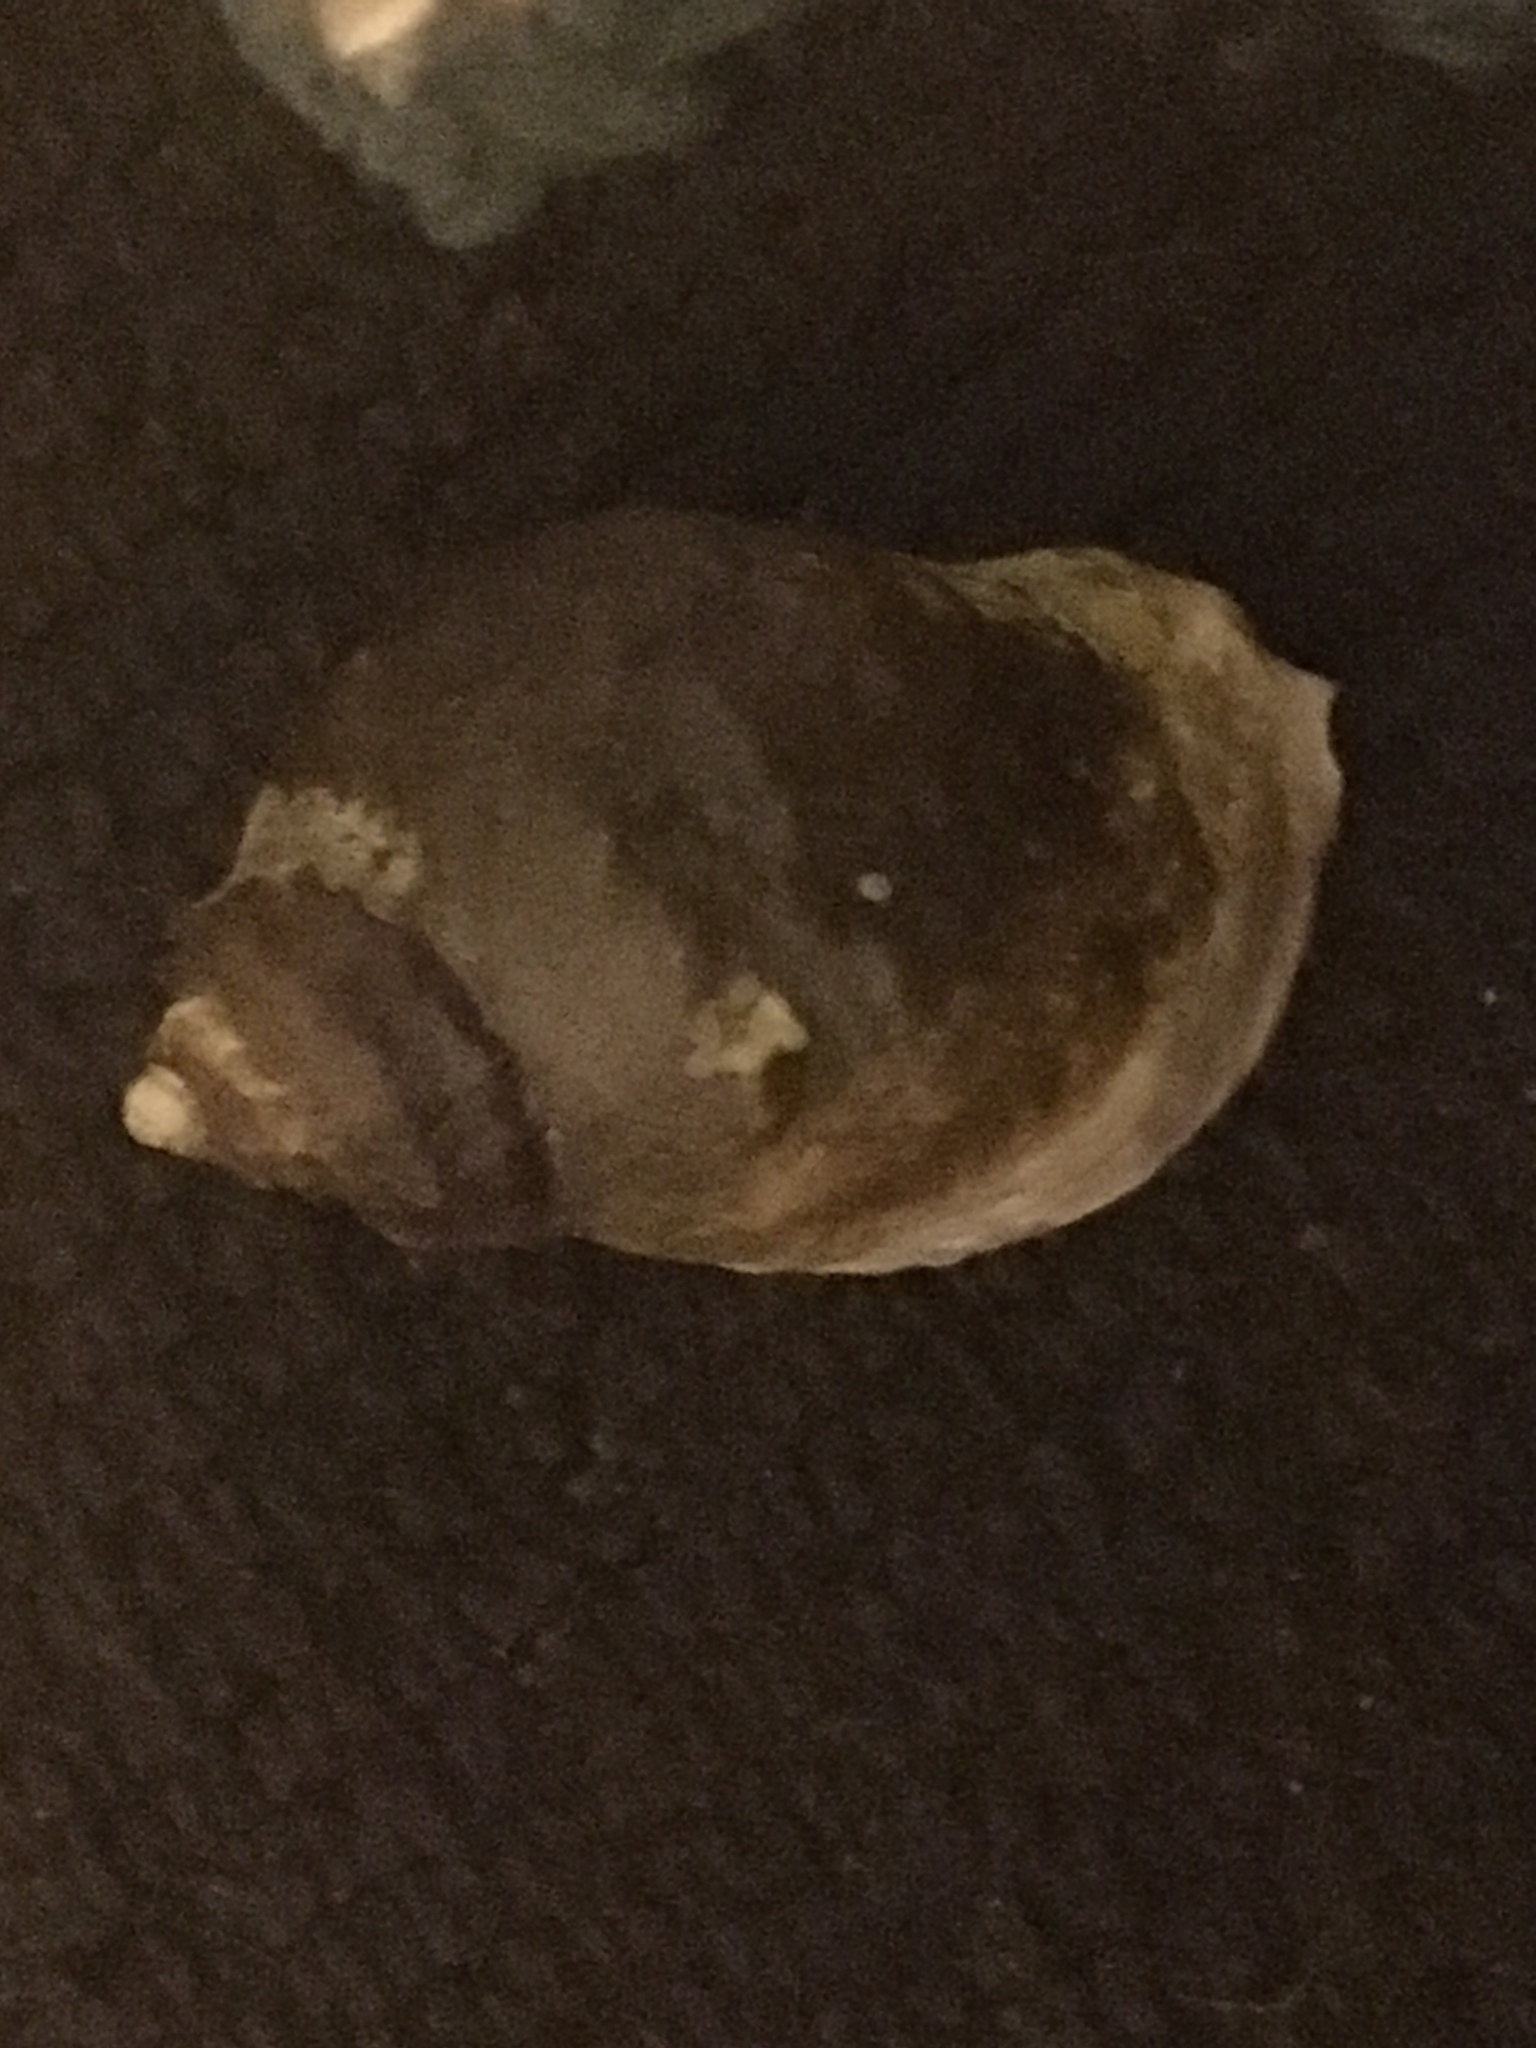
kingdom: Animalia
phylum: Mollusca
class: Gastropoda
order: Neogastropoda
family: Muricidae
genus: Nucella
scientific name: Nucella emarginata
